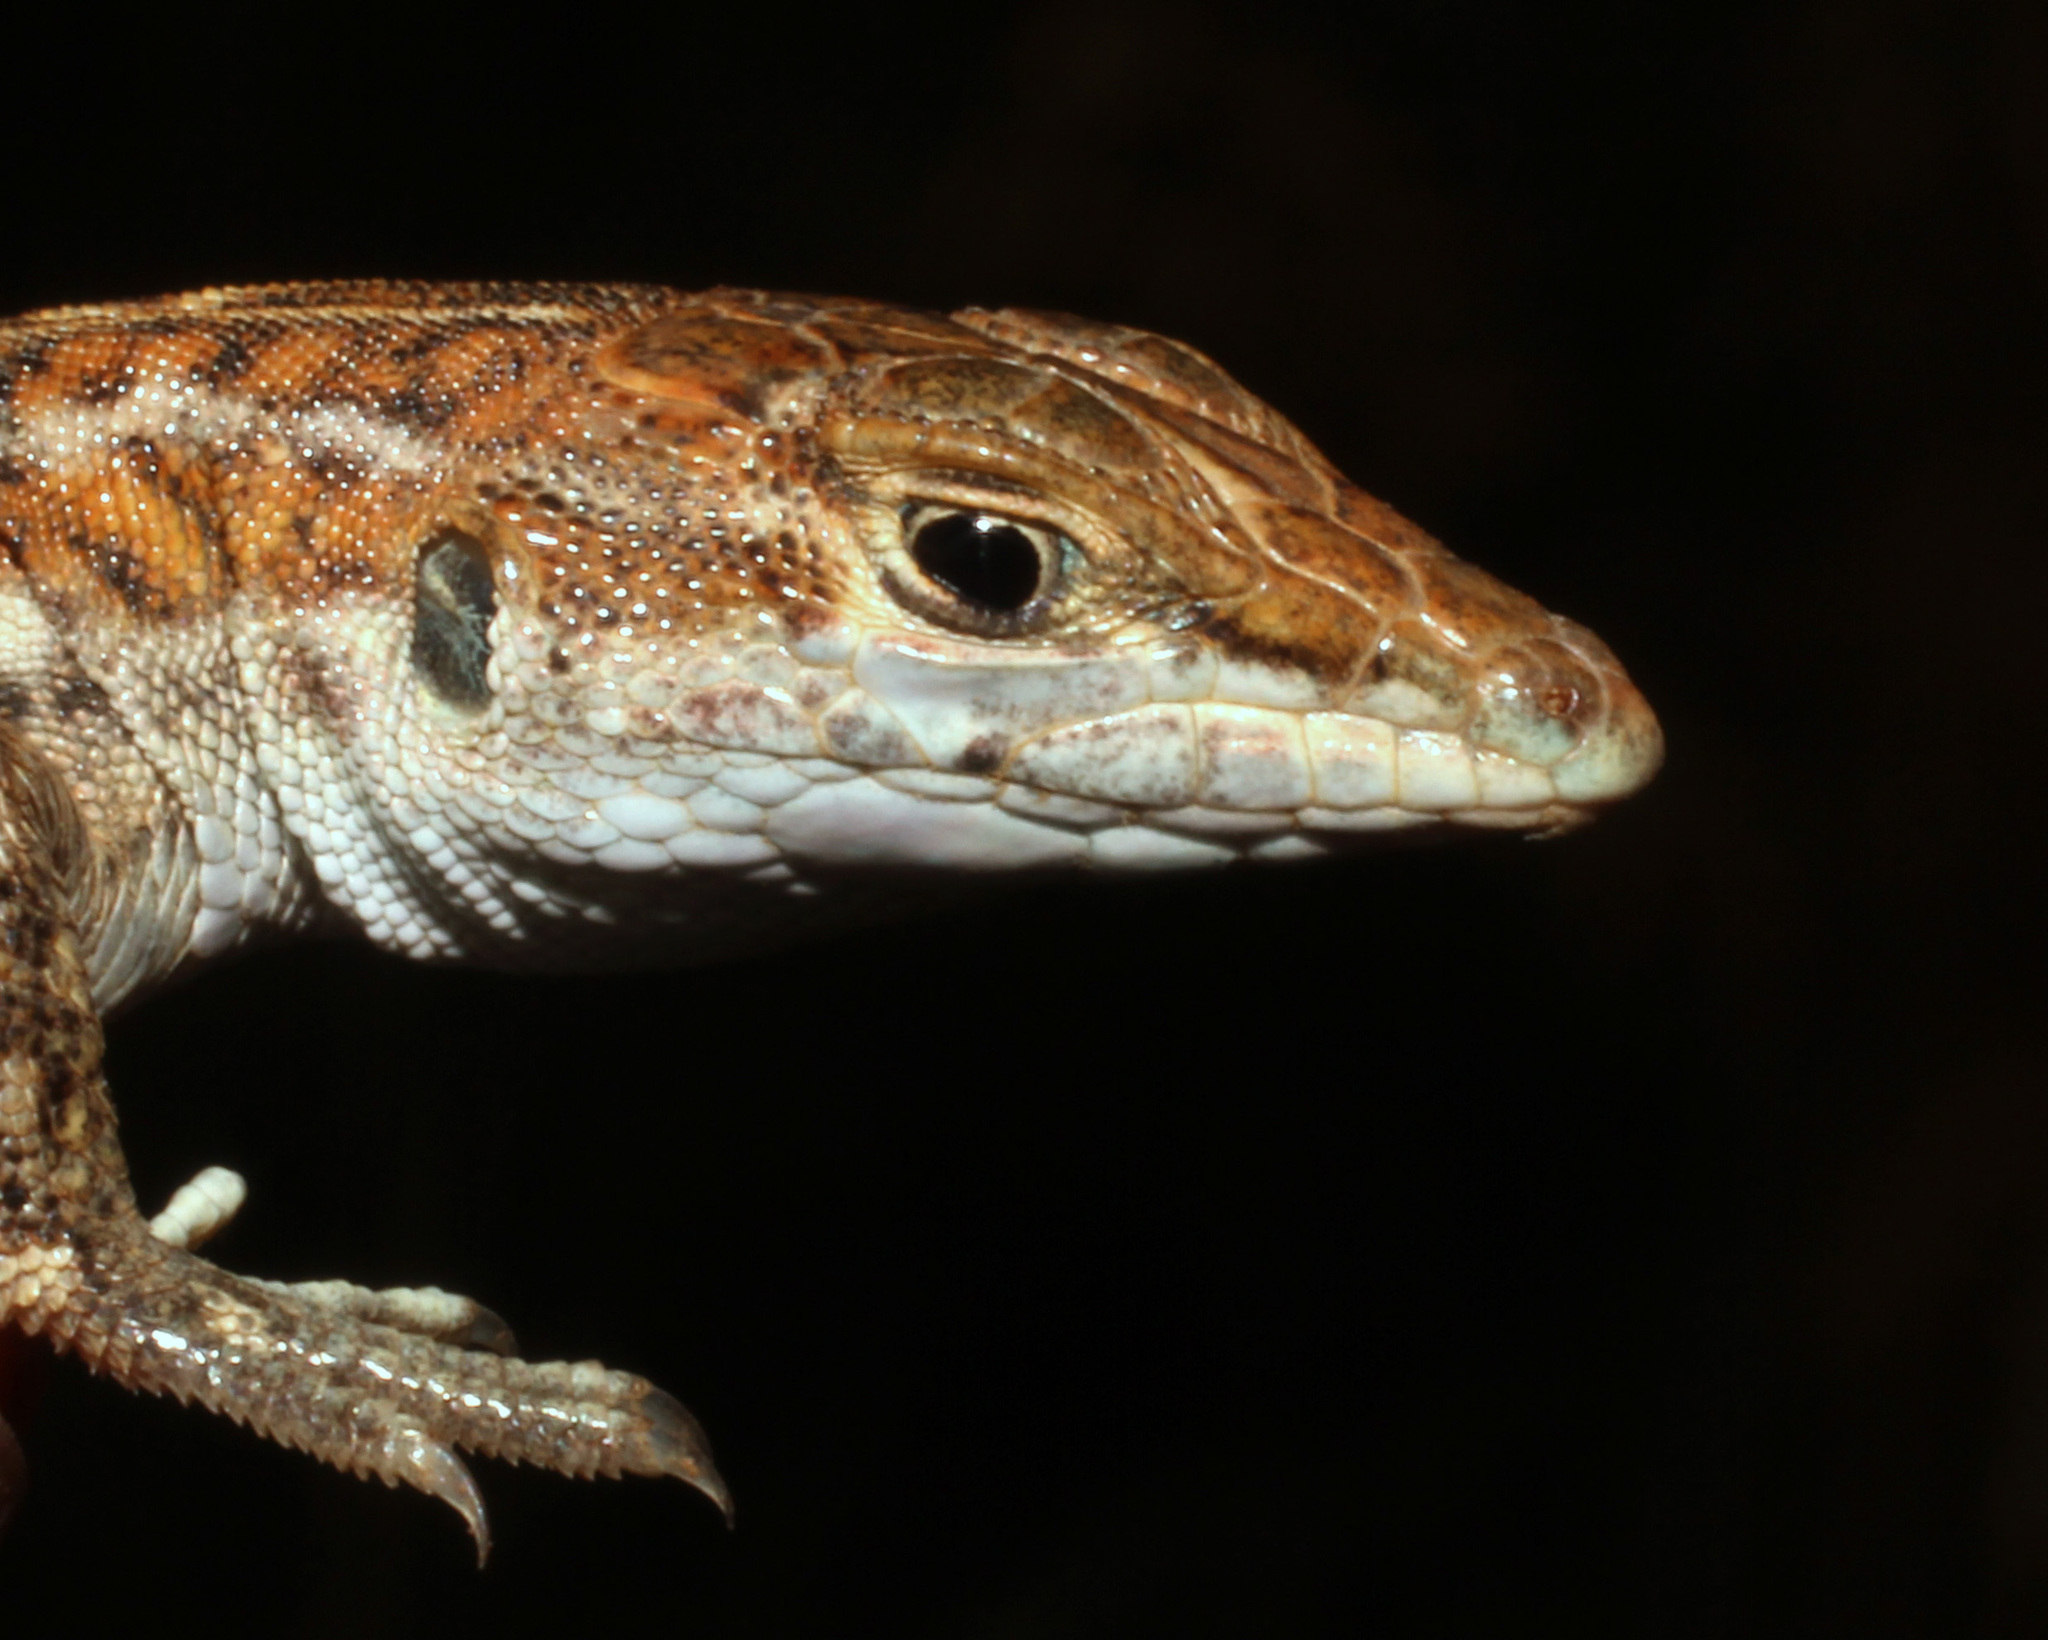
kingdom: Animalia
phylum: Chordata
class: Squamata
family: Lacertidae
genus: Heliobolus
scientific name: Heliobolus lugubris
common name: Bushveld lizard
